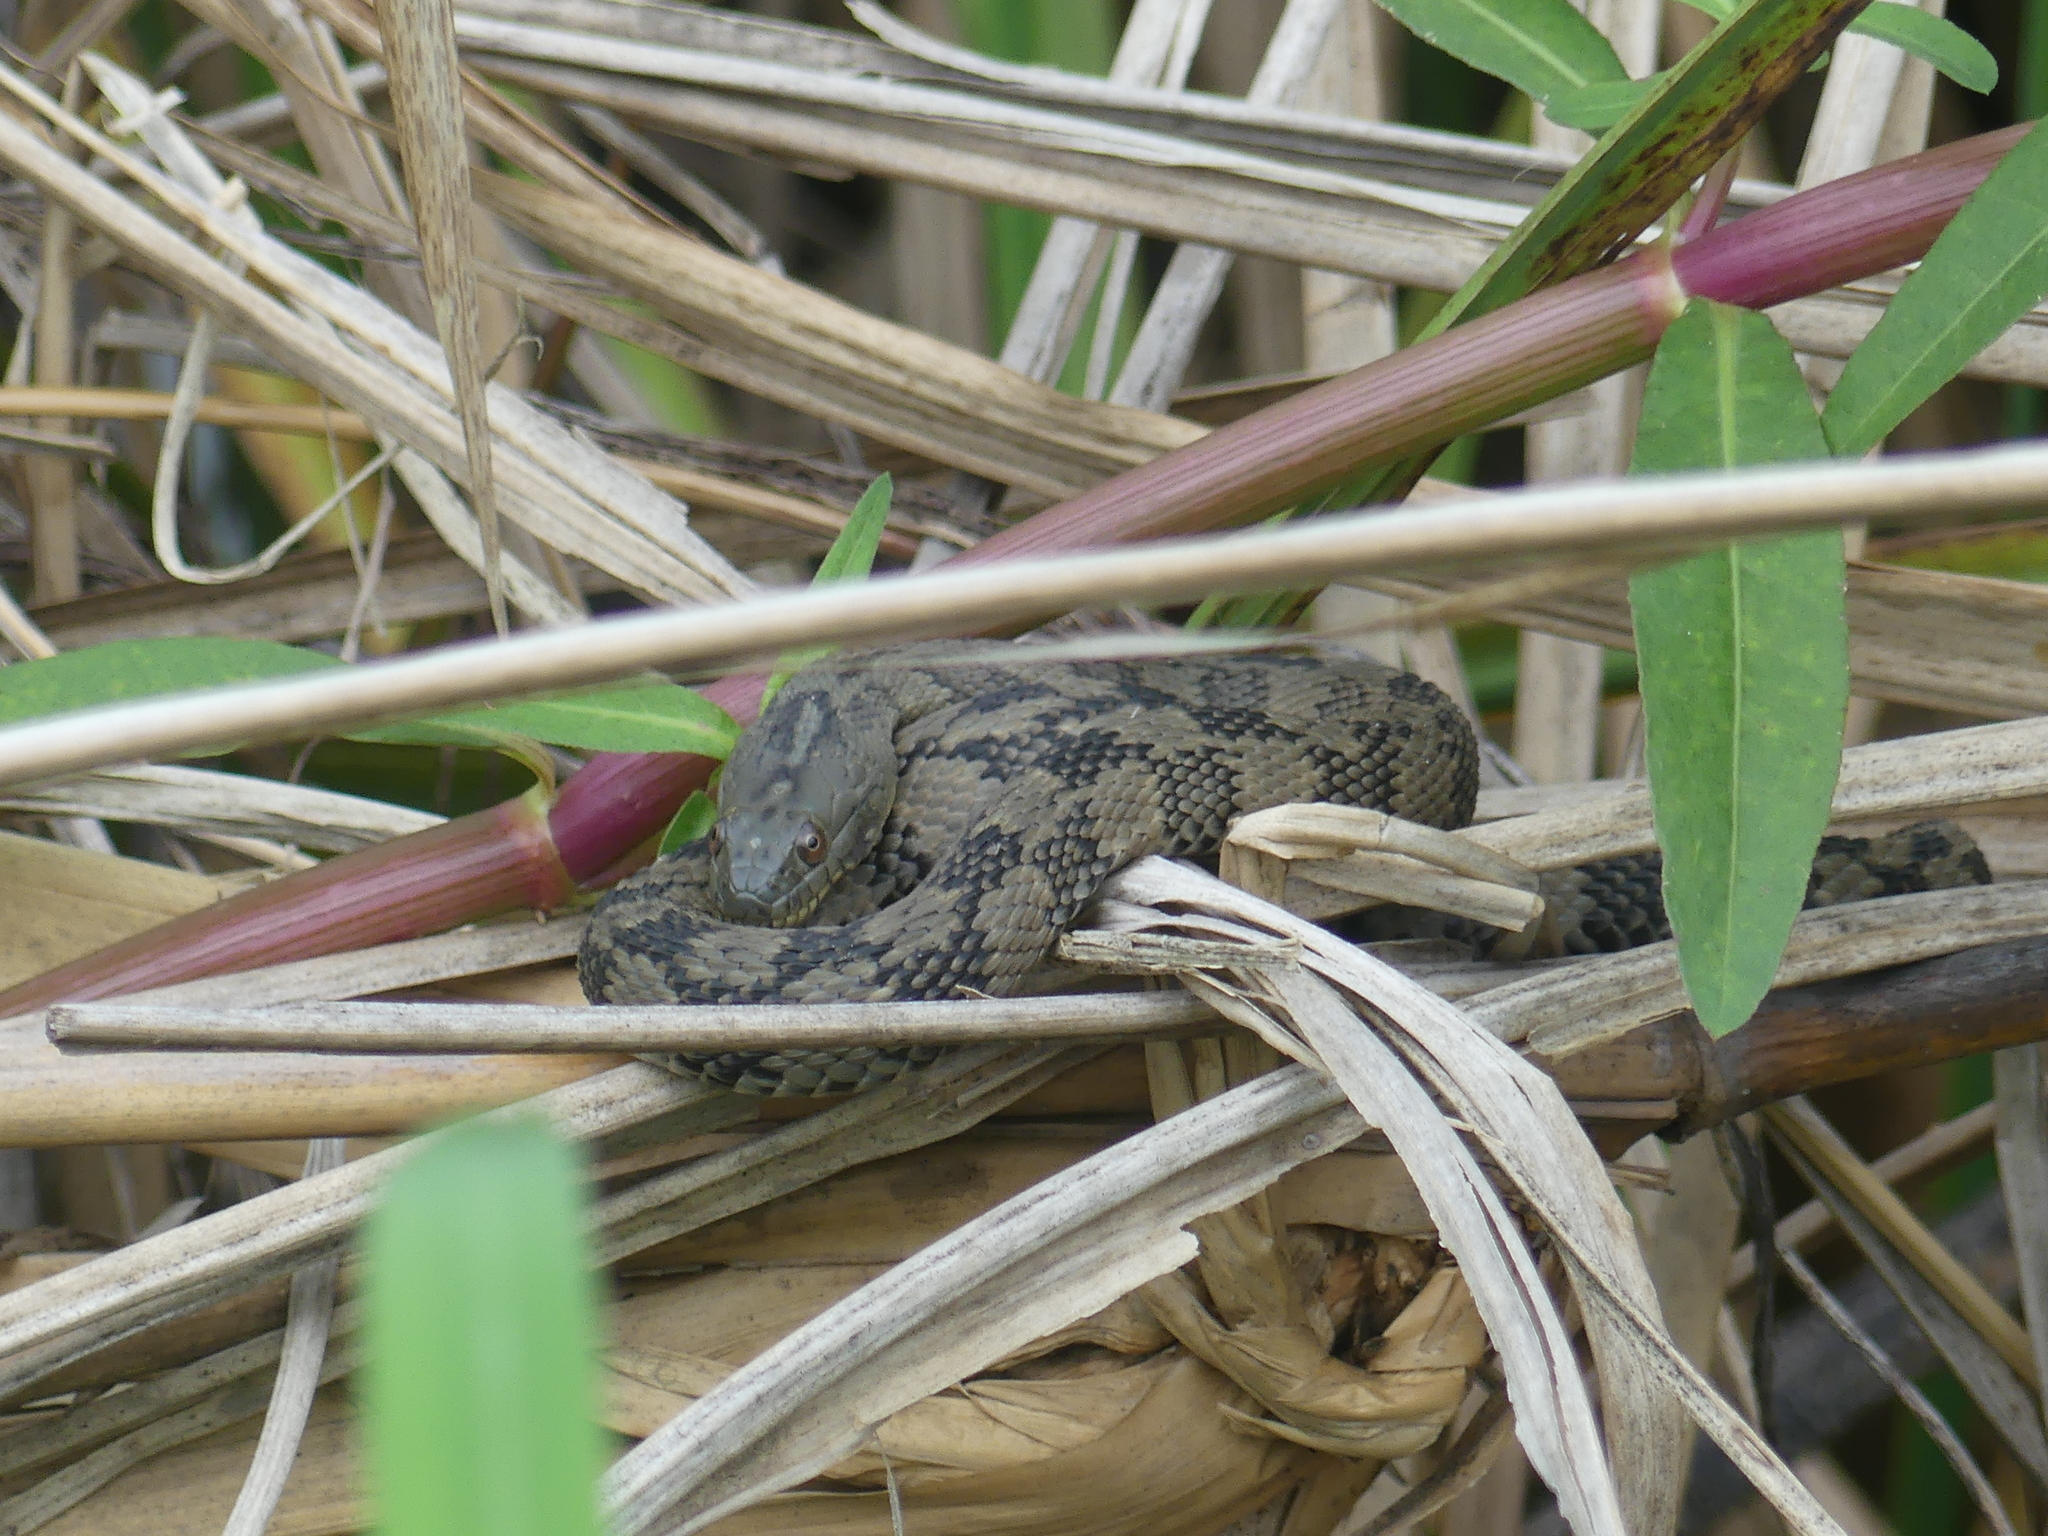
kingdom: Animalia
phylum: Chordata
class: Squamata
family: Colubridae
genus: Nerodia
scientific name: Nerodia rhombifer
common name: Diamondback water snake
